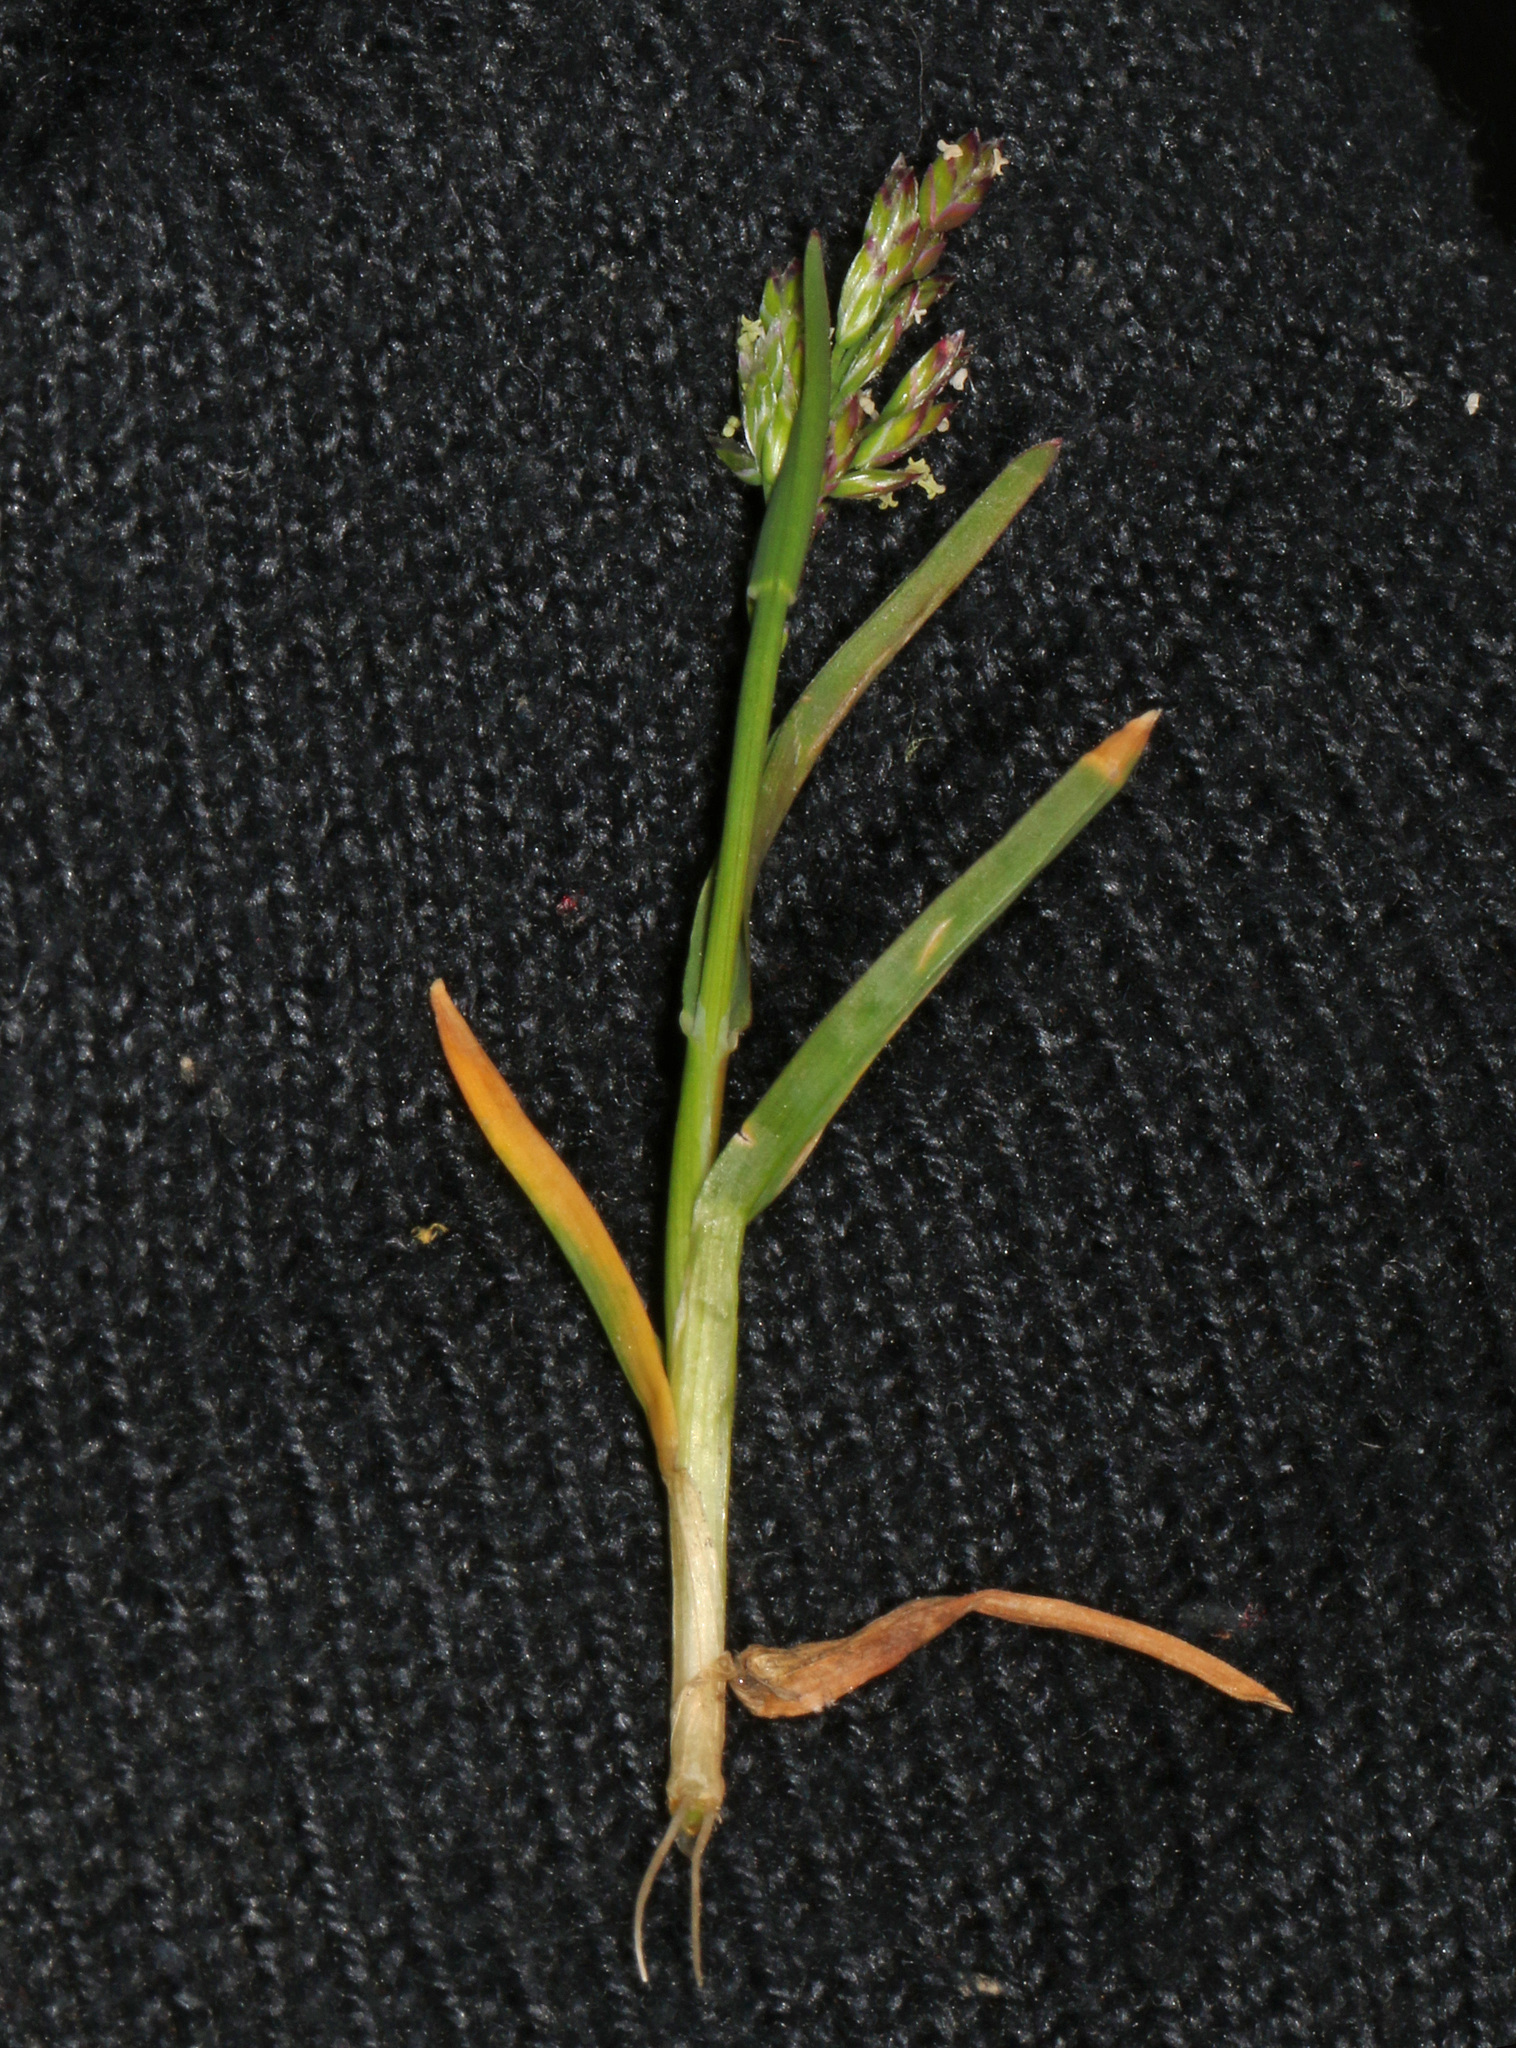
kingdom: Plantae
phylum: Tracheophyta
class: Liliopsida
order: Poales
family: Poaceae
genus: Poa
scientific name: Poa annua
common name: Annual bluegrass
